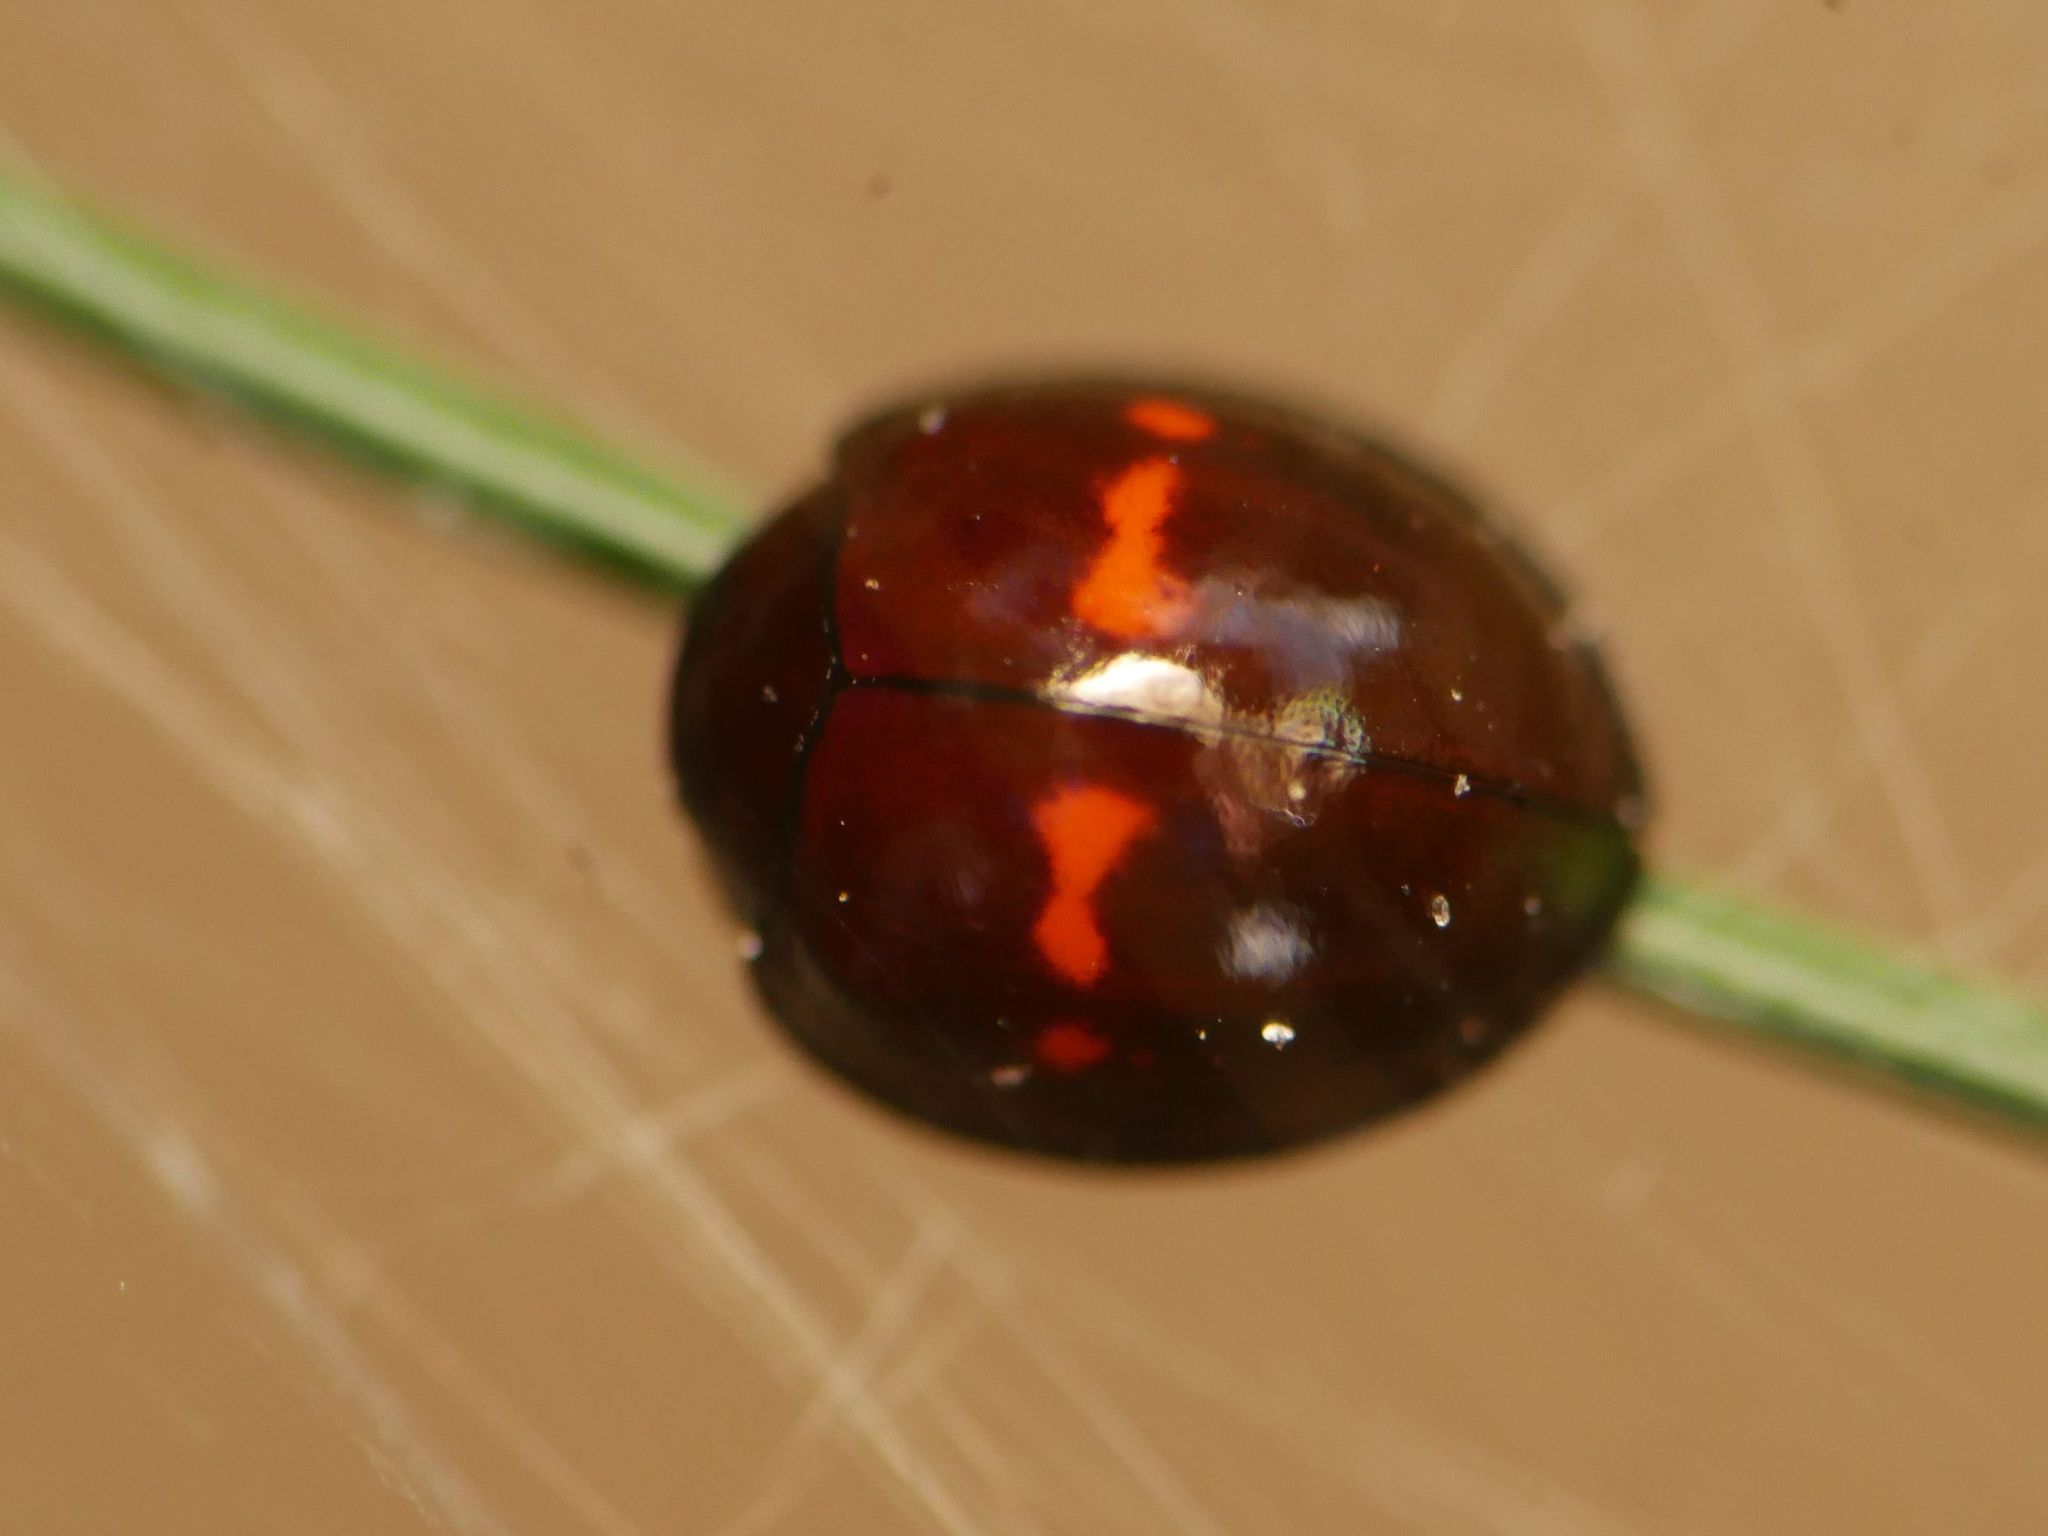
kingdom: Animalia
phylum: Arthropoda
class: Insecta
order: Coleoptera
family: Coccinellidae
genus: Chilocorus
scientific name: Chilocorus bipustulatus
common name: Heather ladybird
